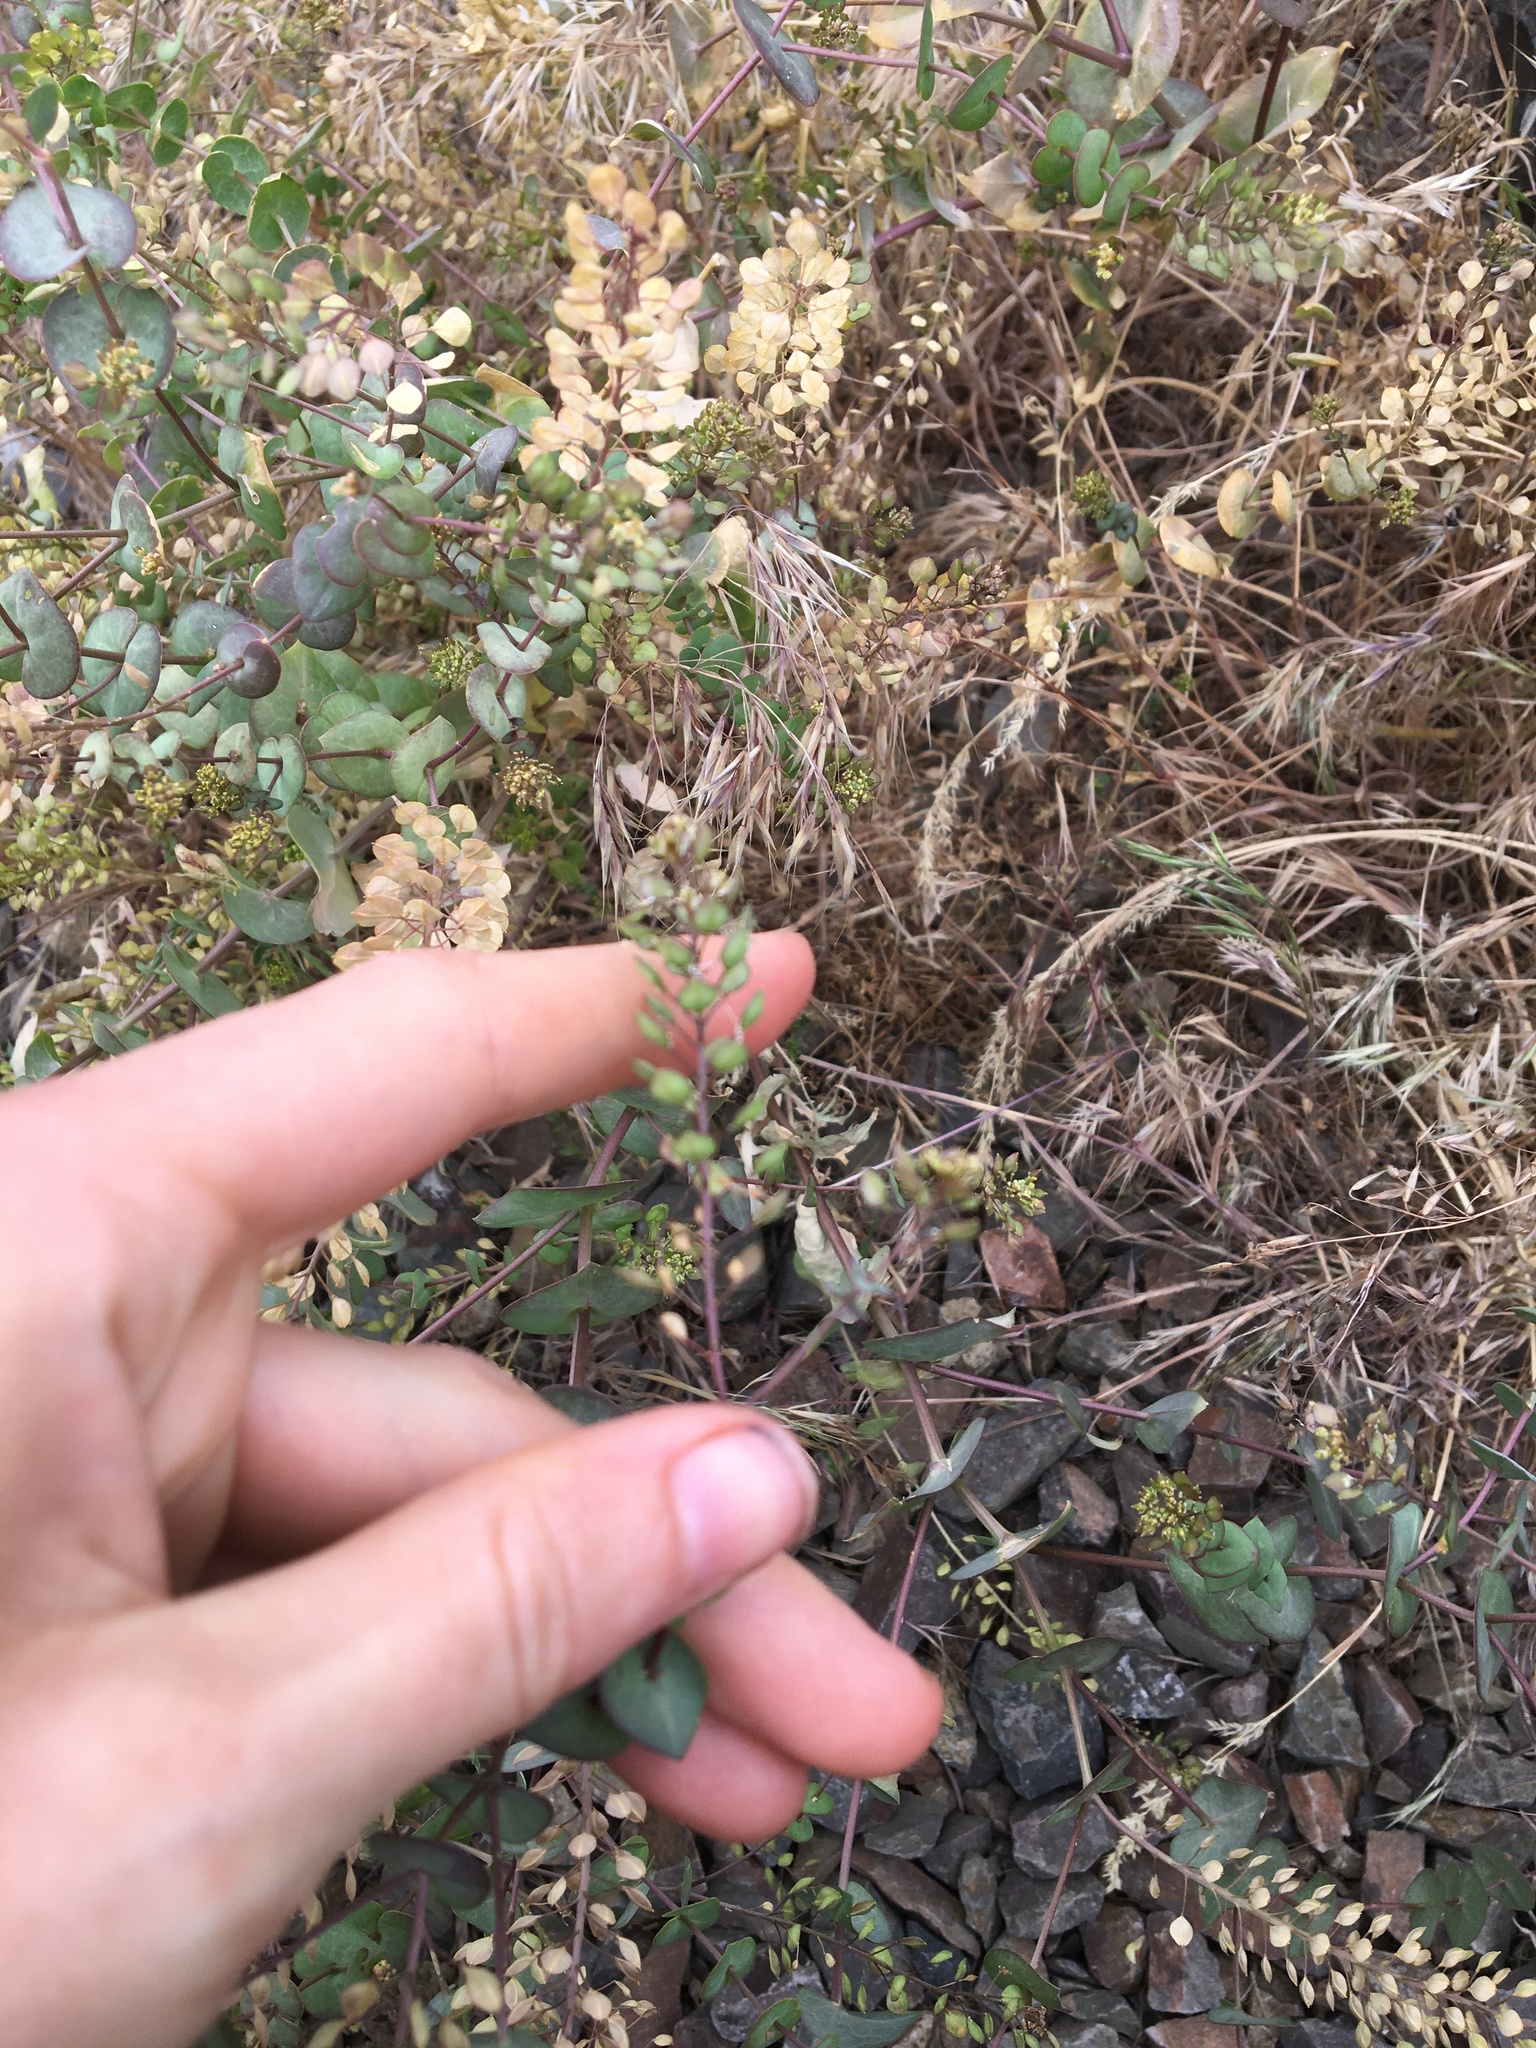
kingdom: Plantae
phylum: Tracheophyta
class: Magnoliopsida
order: Brassicales
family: Brassicaceae
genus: Lepidium
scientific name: Lepidium perfoliatum
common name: Perfoliate pepperwort
